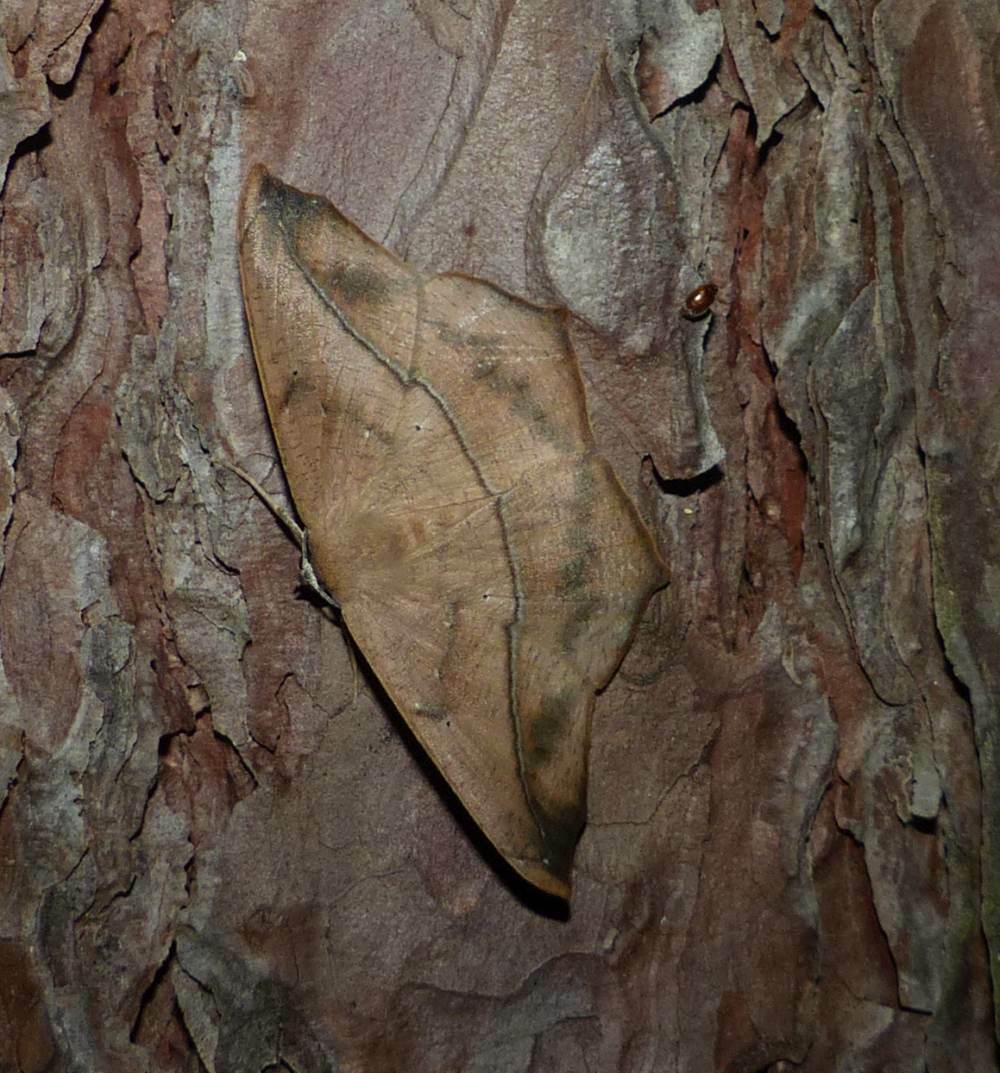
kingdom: Animalia
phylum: Arthropoda
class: Insecta
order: Lepidoptera
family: Geometridae
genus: Prochoerodes
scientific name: Prochoerodes lineola
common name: Large maple spanworm
